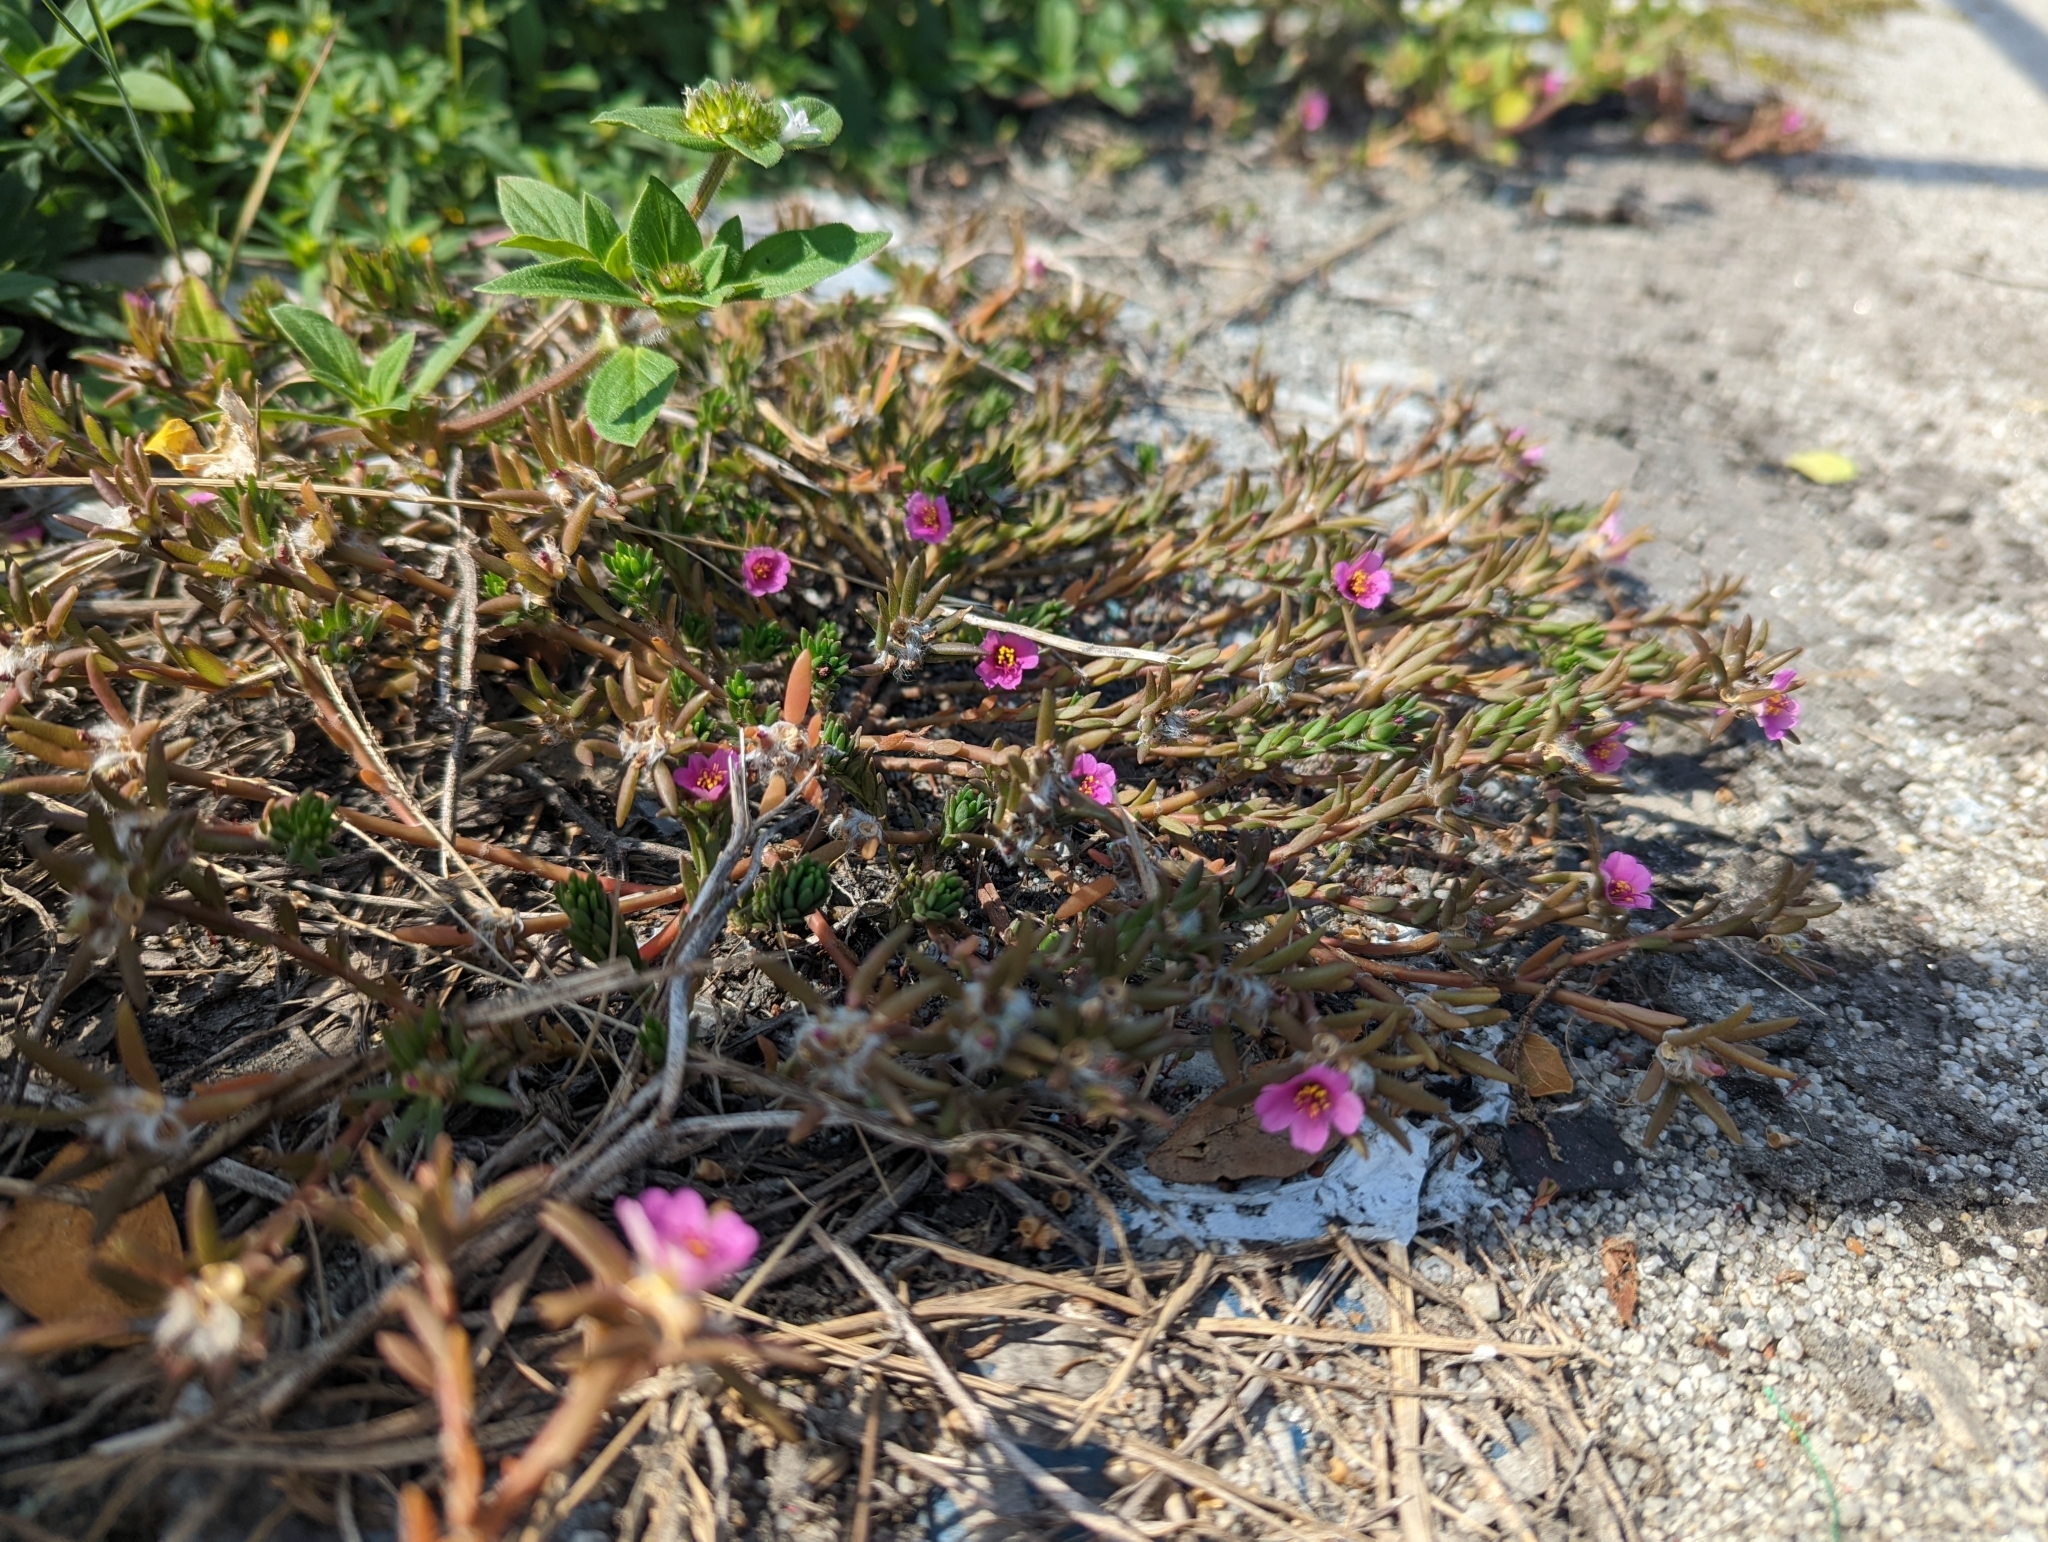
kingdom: Plantae
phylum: Tracheophyta
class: Magnoliopsida
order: Caryophyllales
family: Portulacaceae
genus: Portulaca
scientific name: Portulaca pilosa
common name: Kiss me quick
